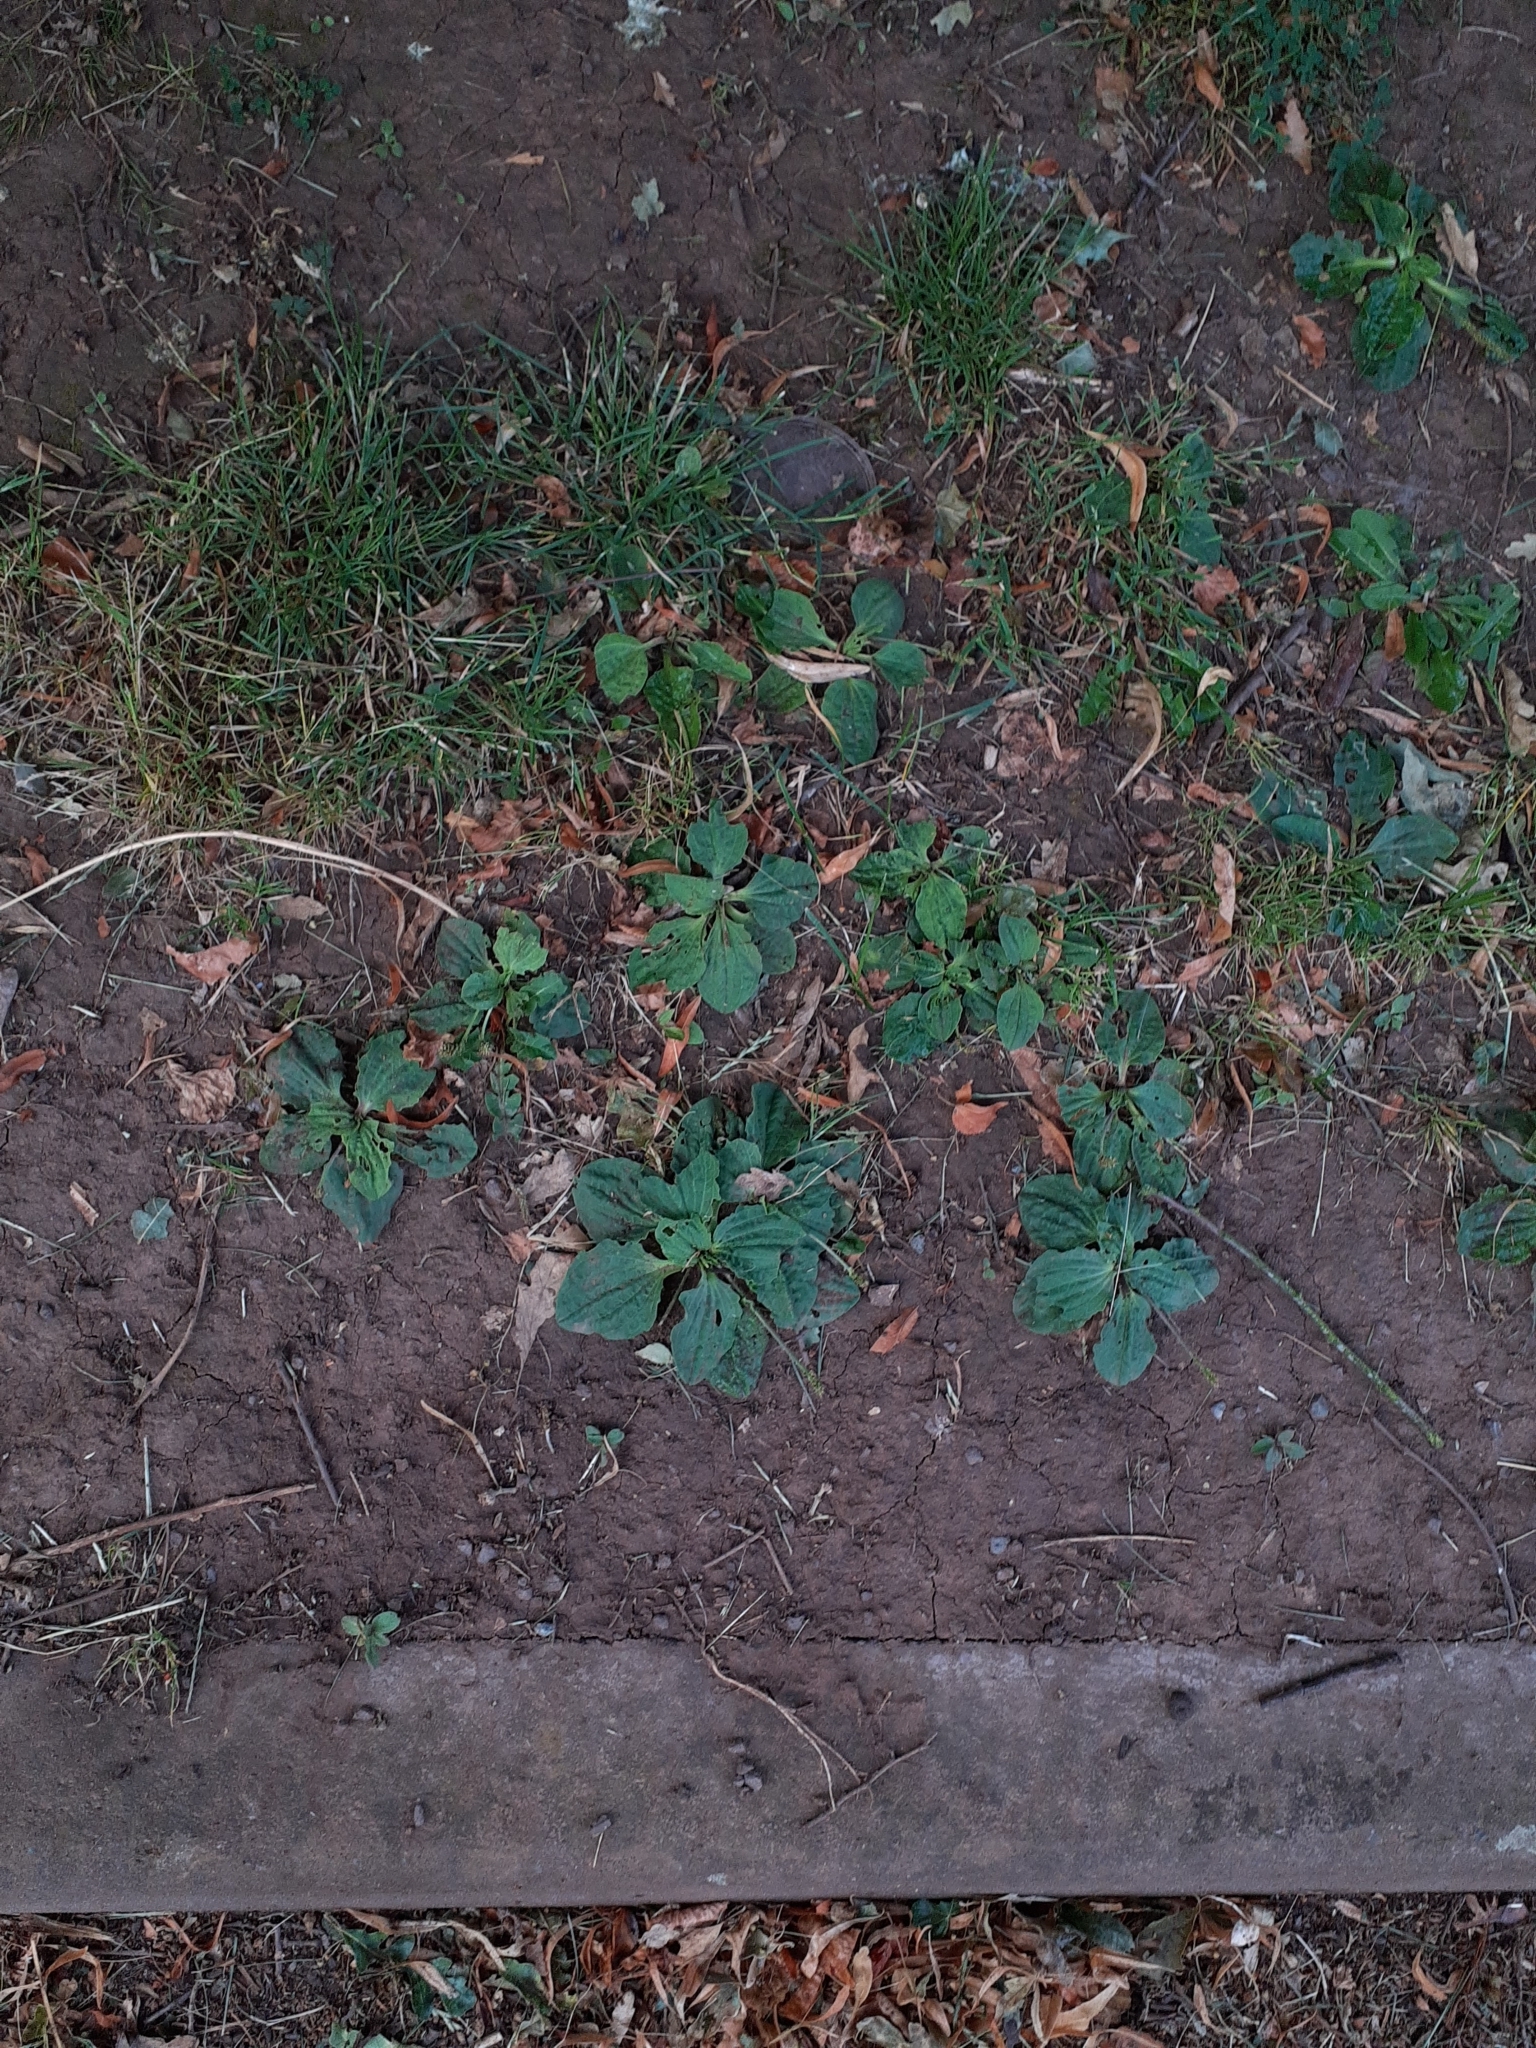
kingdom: Plantae
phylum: Tracheophyta
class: Magnoliopsida
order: Lamiales
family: Plantaginaceae
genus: Plantago
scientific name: Plantago major
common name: Common plantain
